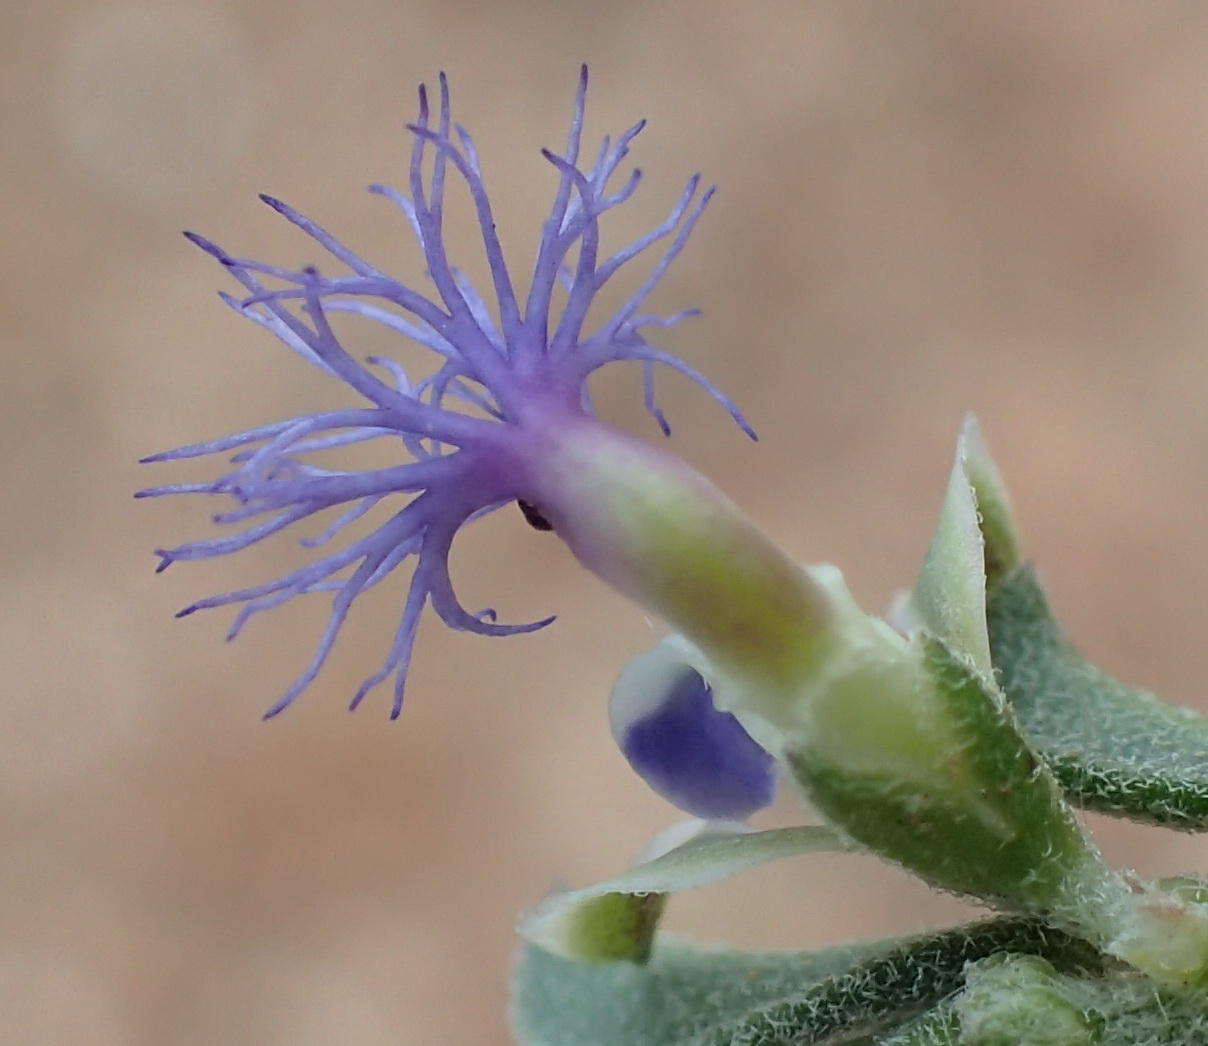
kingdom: Plantae
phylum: Tracheophyta
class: Magnoliopsida
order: Fabales
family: Polygalaceae
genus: Polygala
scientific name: Polygala asbestina
